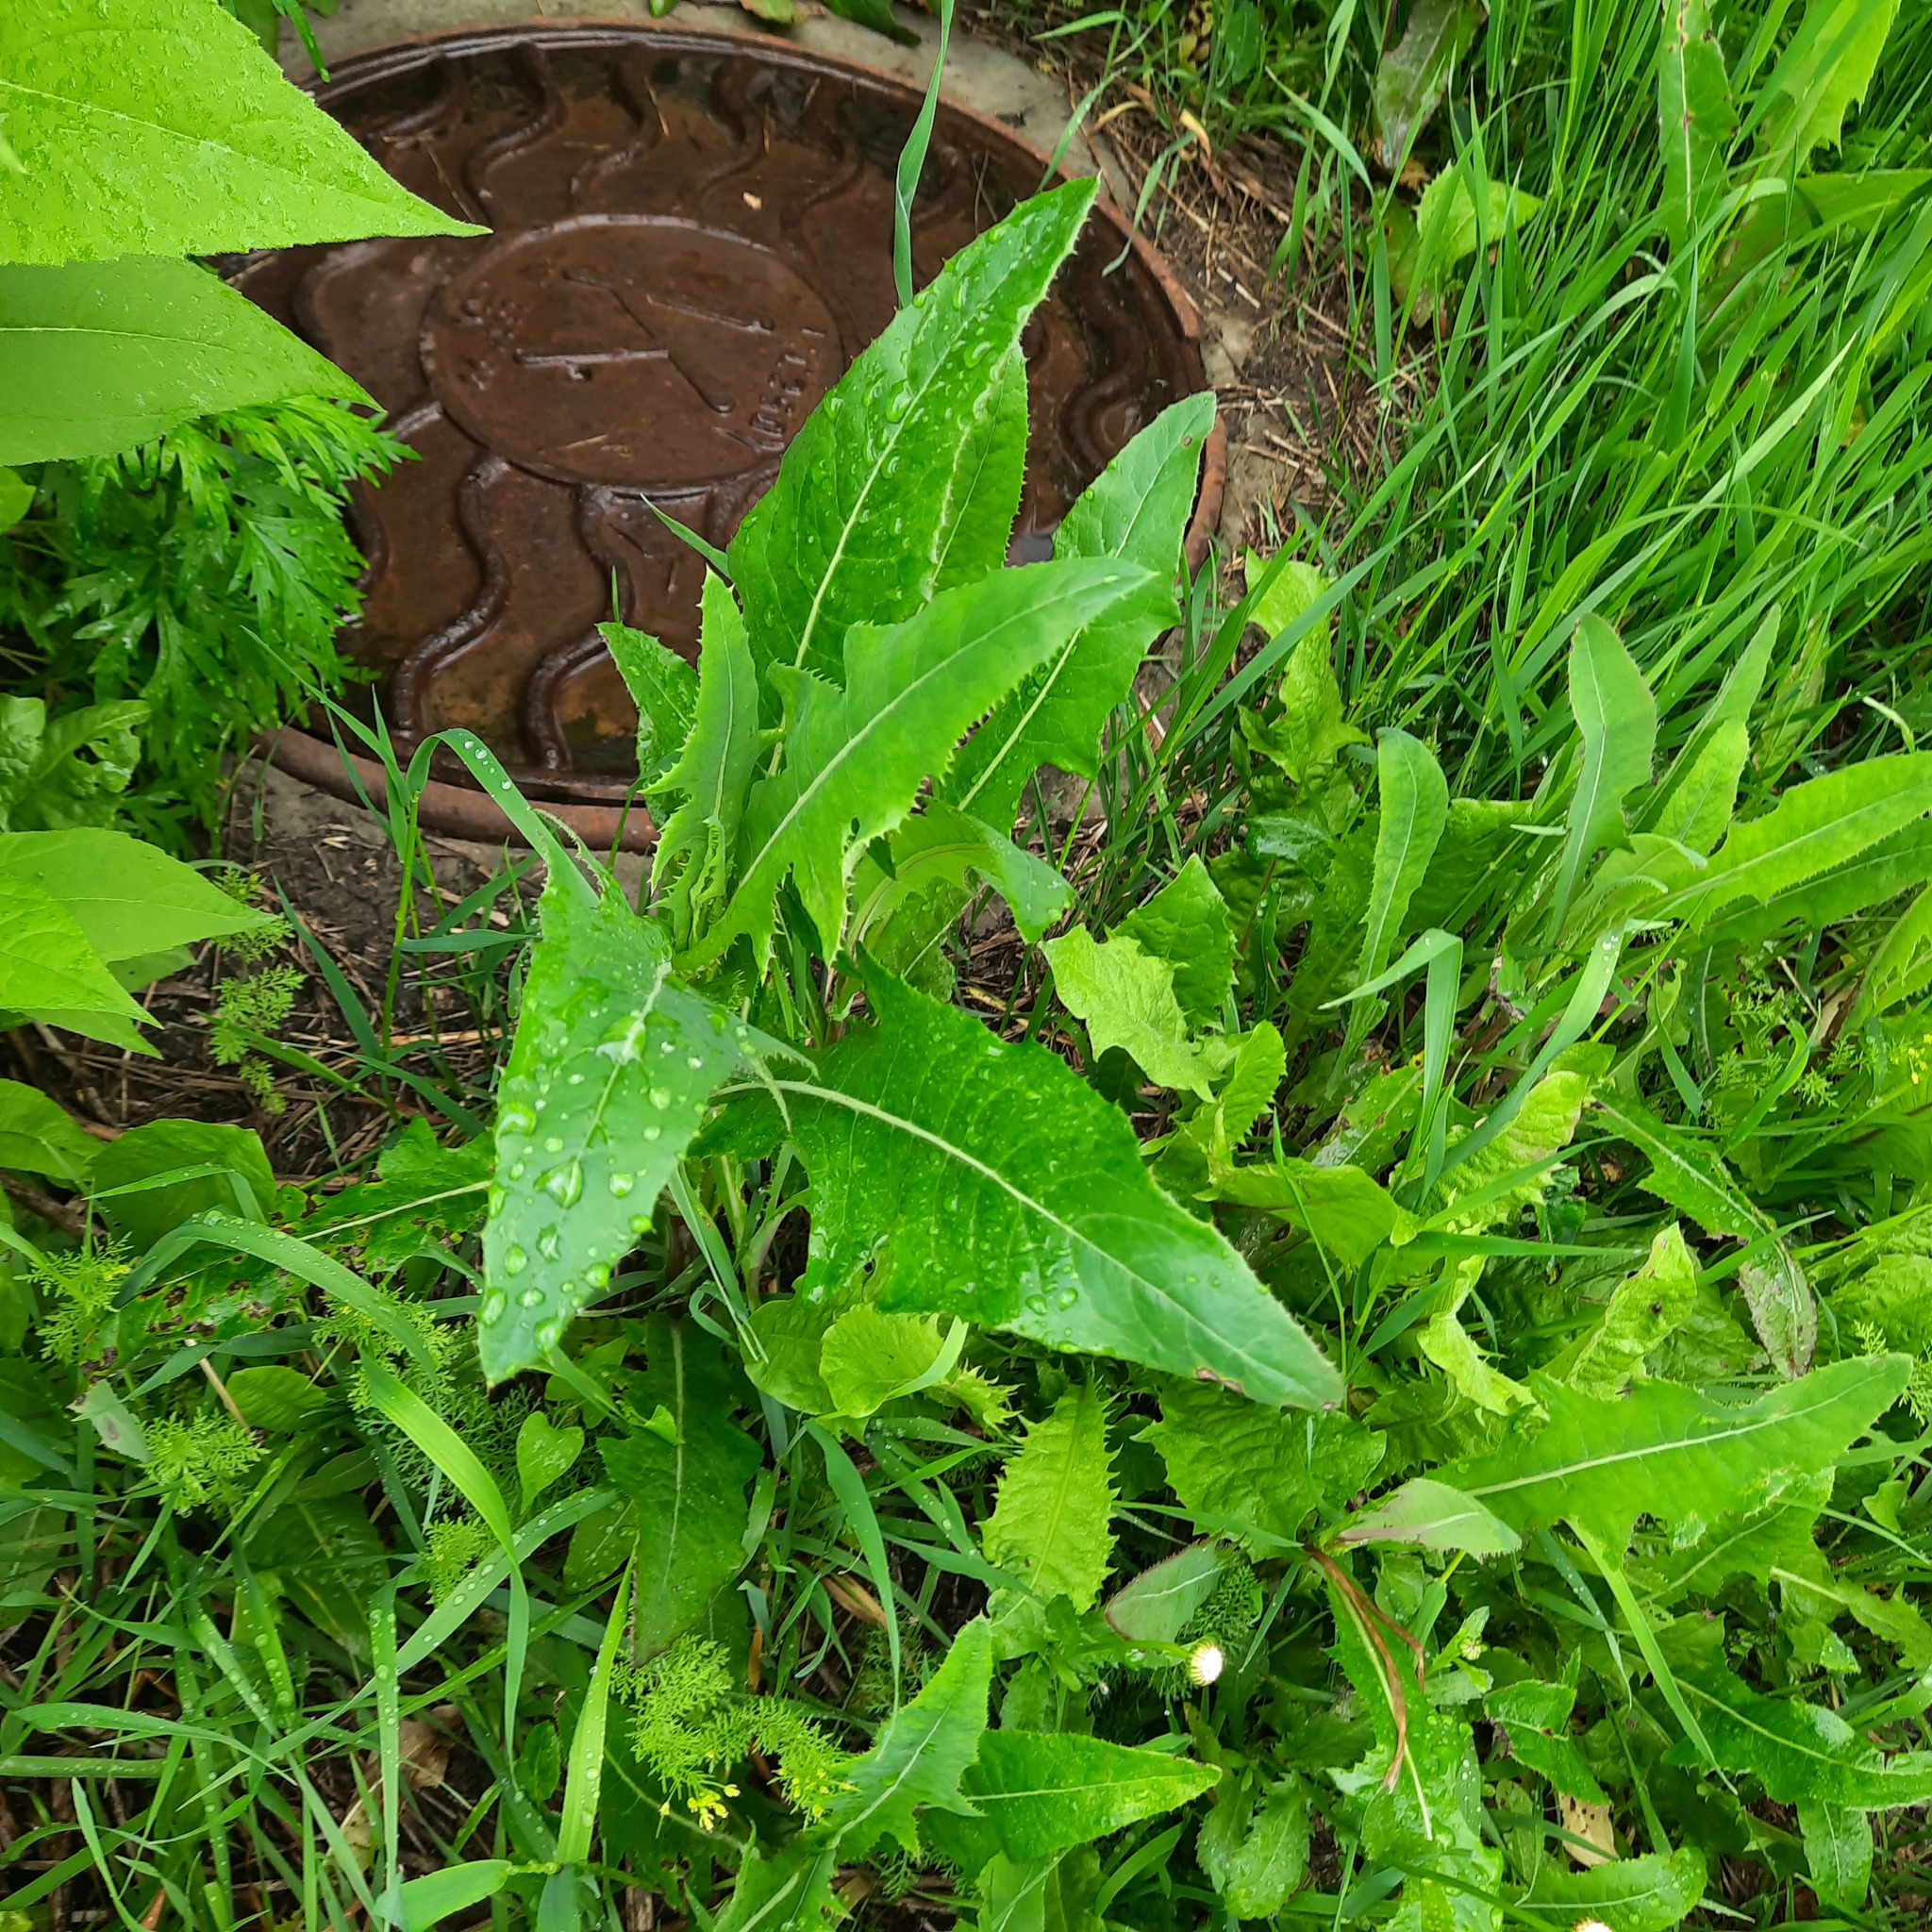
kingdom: Plantae
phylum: Tracheophyta
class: Magnoliopsida
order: Asterales
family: Asteraceae
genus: Sonchus
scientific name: Sonchus arvensis
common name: Perennial sow-thistle
